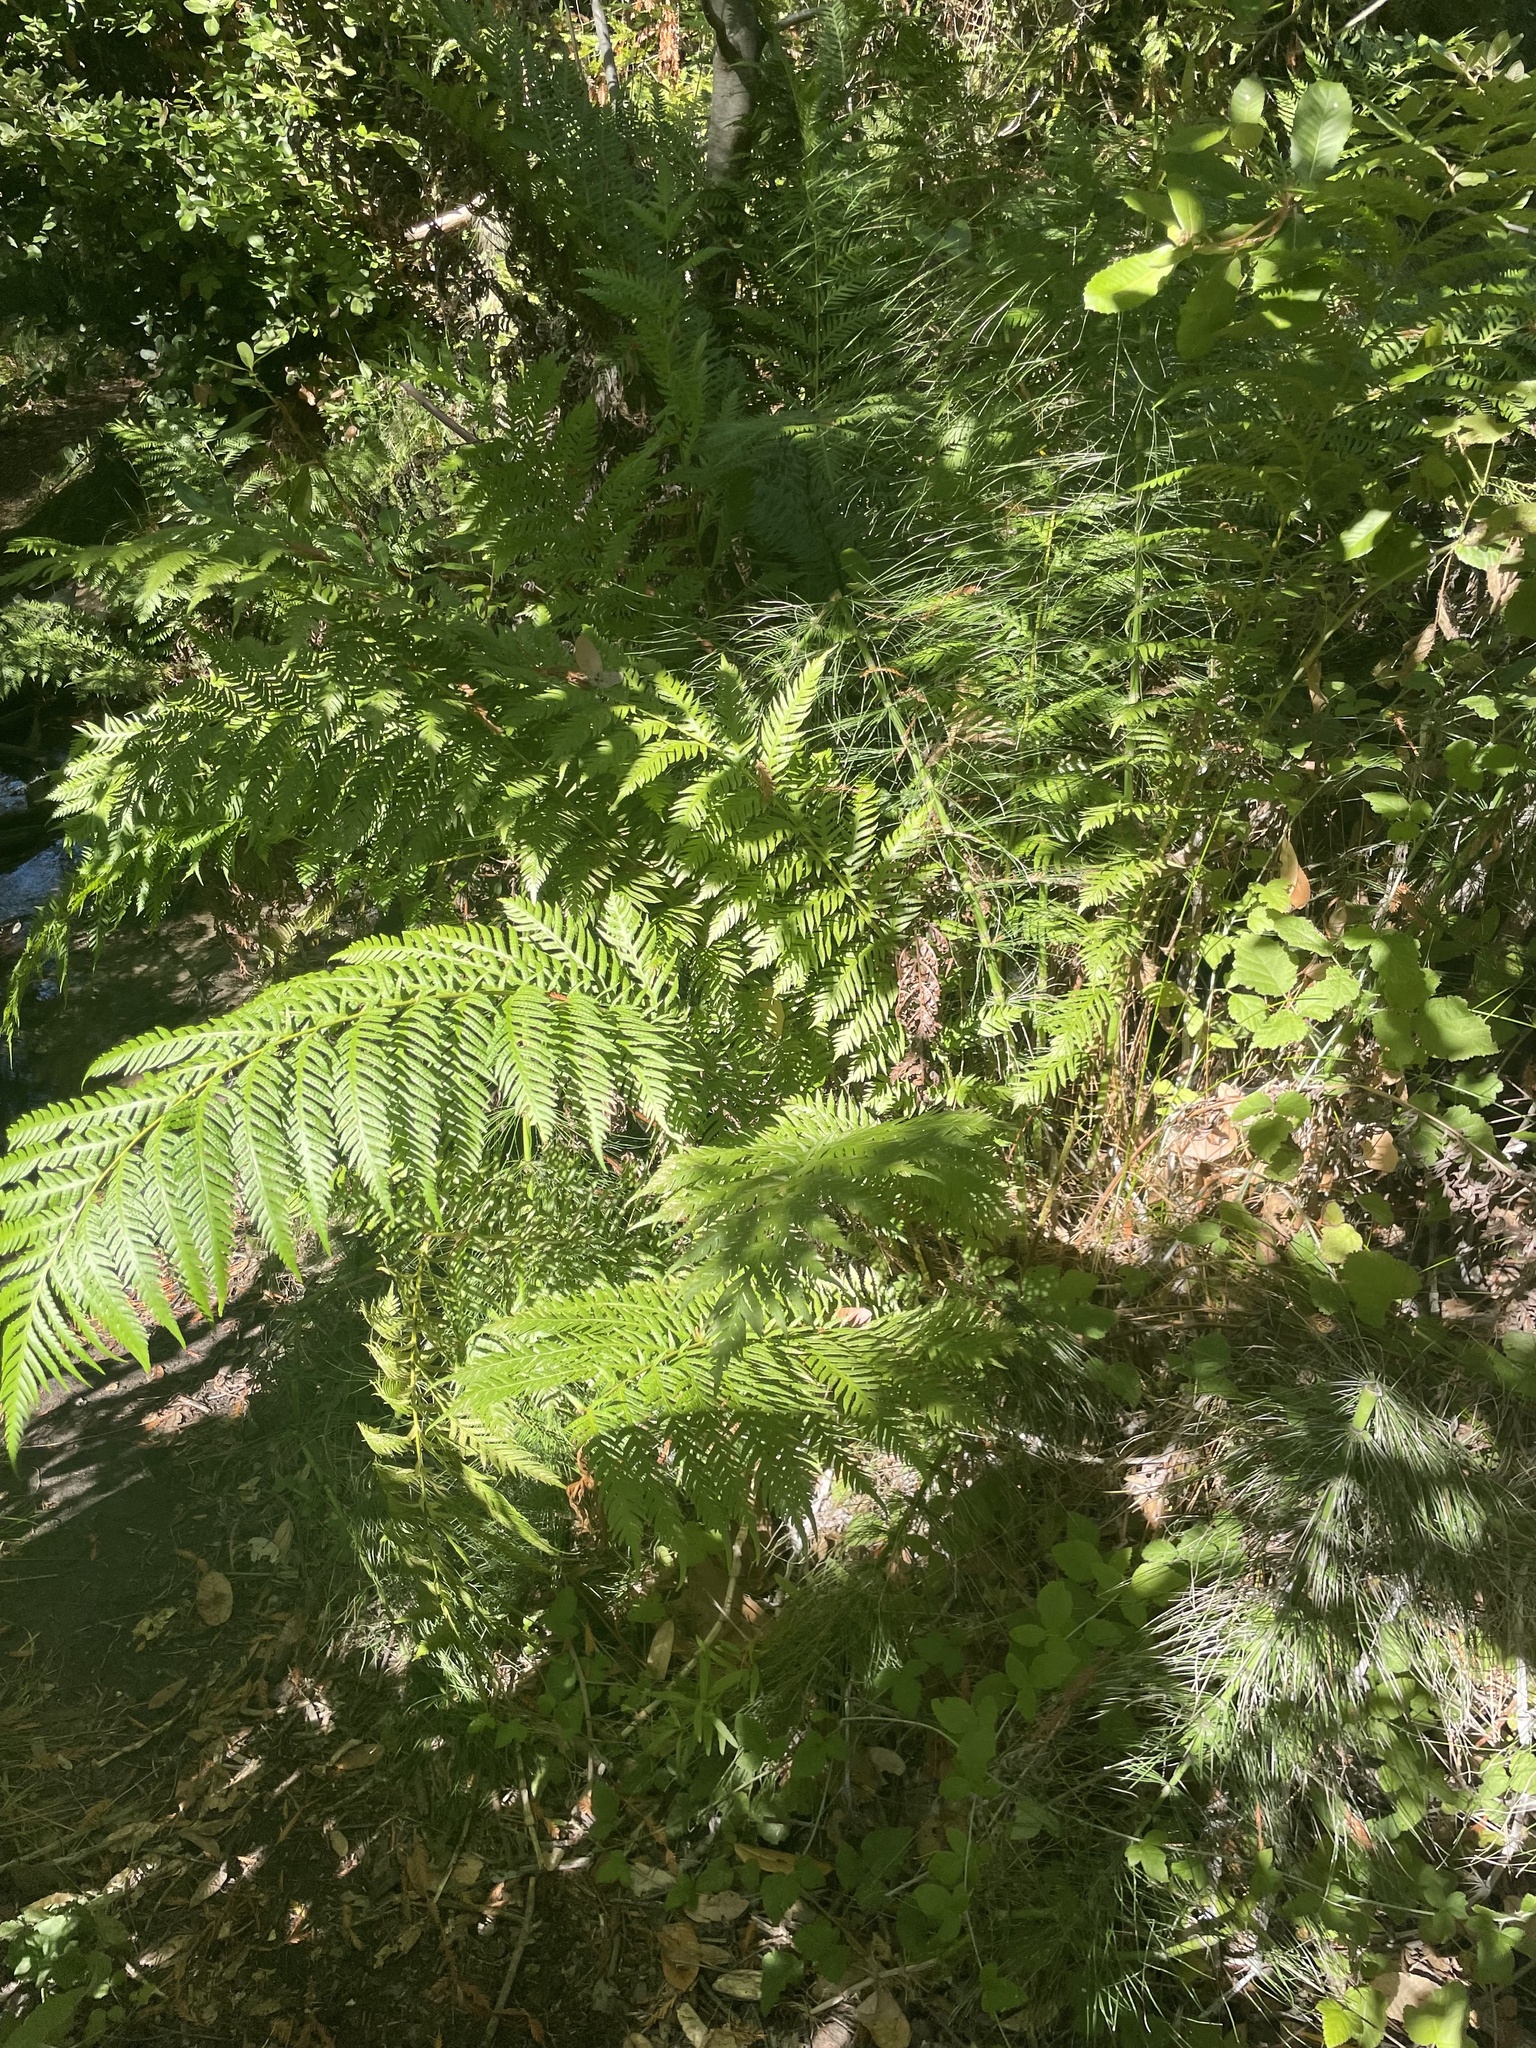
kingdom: Plantae
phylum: Tracheophyta
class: Polypodiopsida
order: Polypodiales
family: Blechnaceae
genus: Woodwardia
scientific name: Woodwardia fimbriata
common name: Giant chain fern
